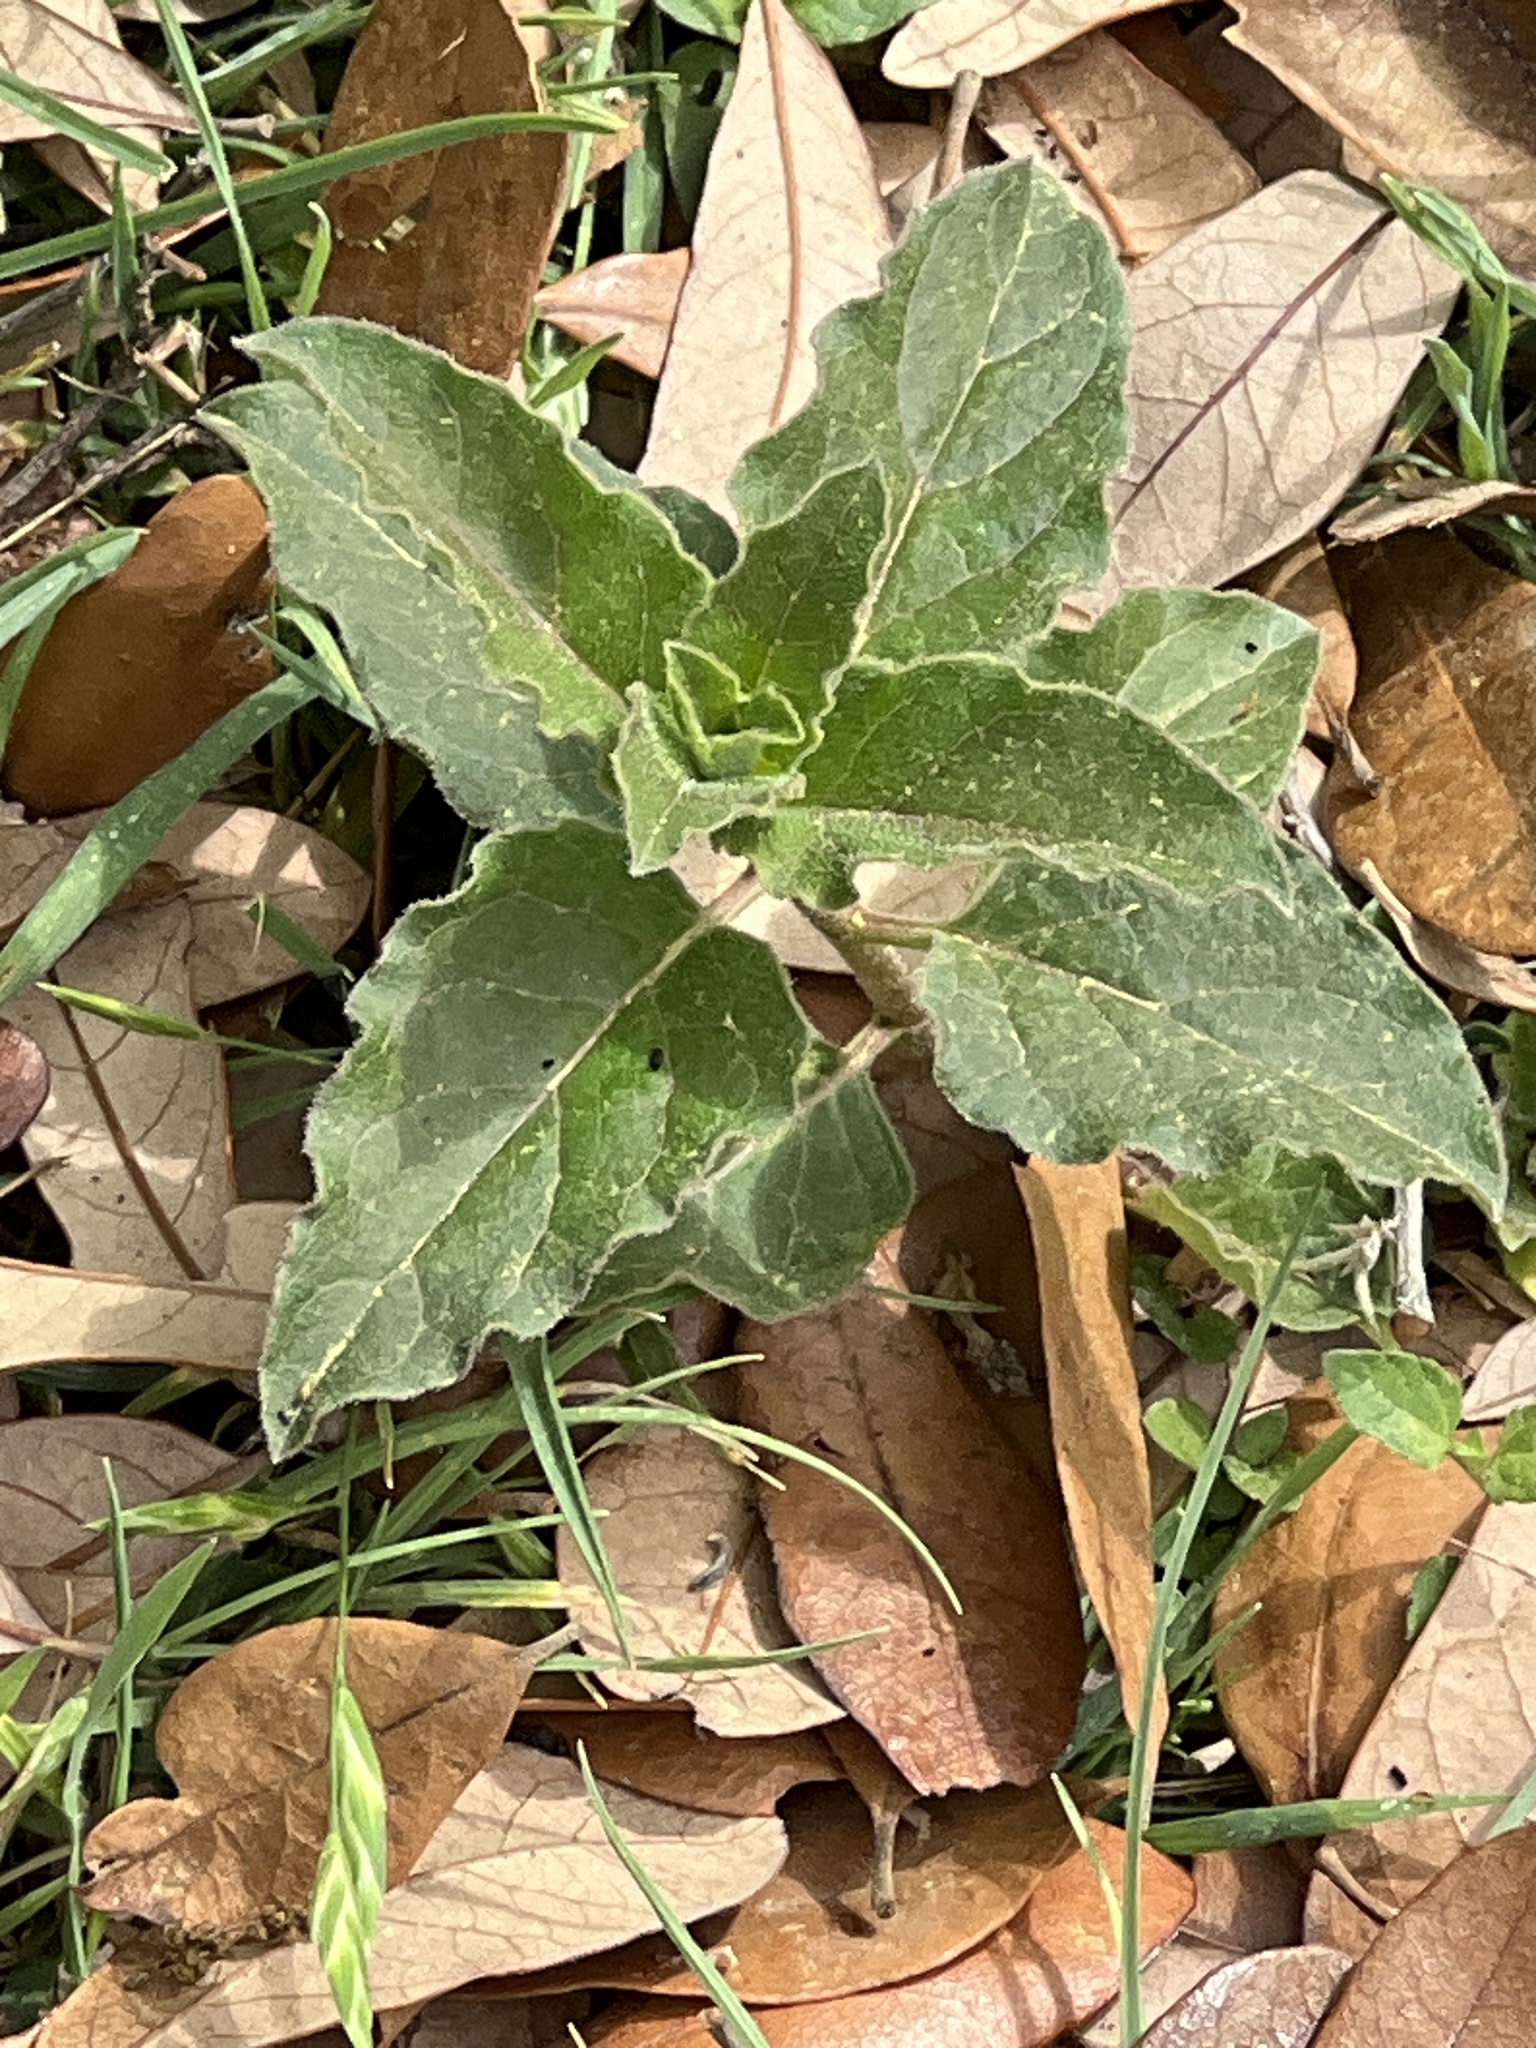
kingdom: Plantae
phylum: Tracheophyta
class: Magnoliopsida
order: Gentianales
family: Apocynaceae
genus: Asclepias
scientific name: Asclepias oenotheroides
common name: Zizotes milkweed
